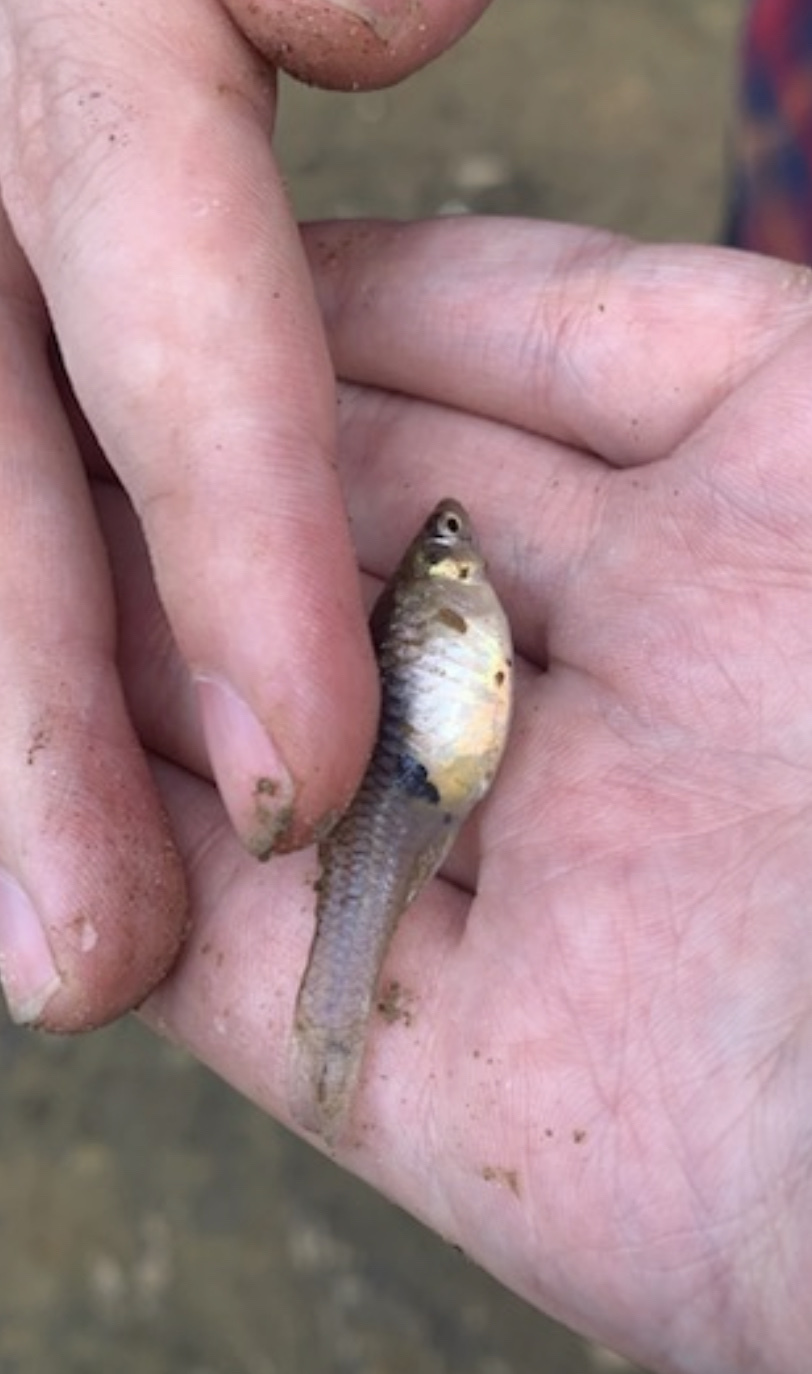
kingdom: Animalia
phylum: Chordata
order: Cyprinodontiformes
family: Poeciliidae
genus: Gambusia
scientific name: Gambusia affinis
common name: Mosquitofish
